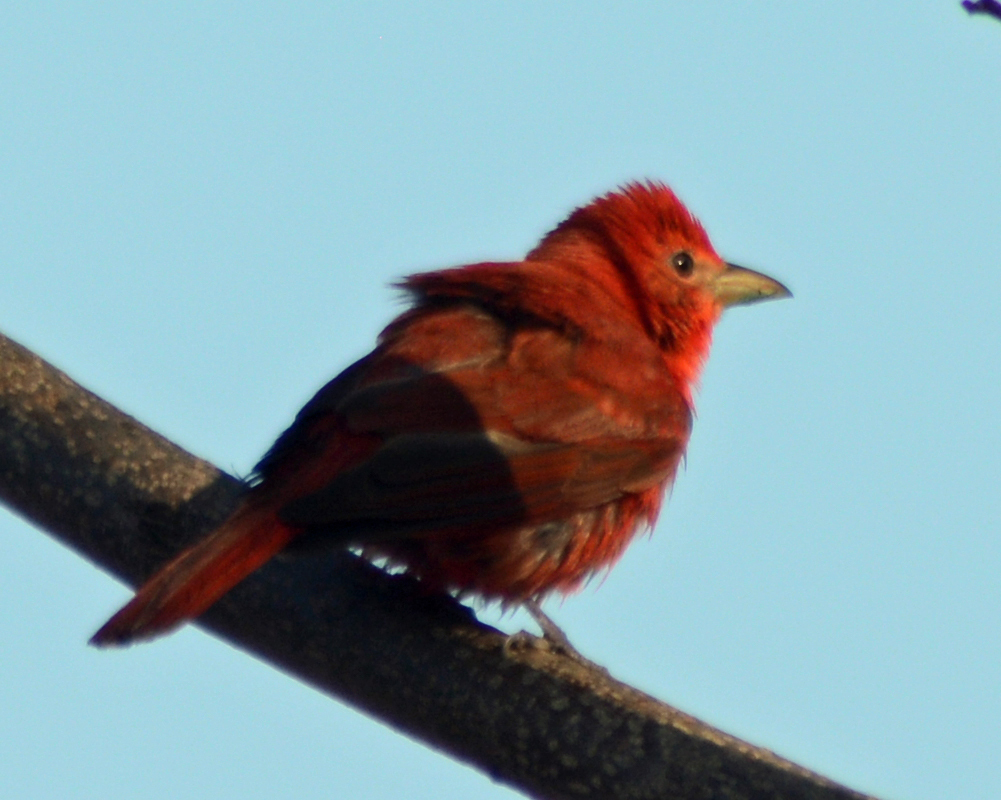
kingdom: Animalia
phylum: Chordata
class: Aves
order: Passeriformes
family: Cardinalidae
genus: Piranga
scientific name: Piranga rubra
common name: Summer tanager
